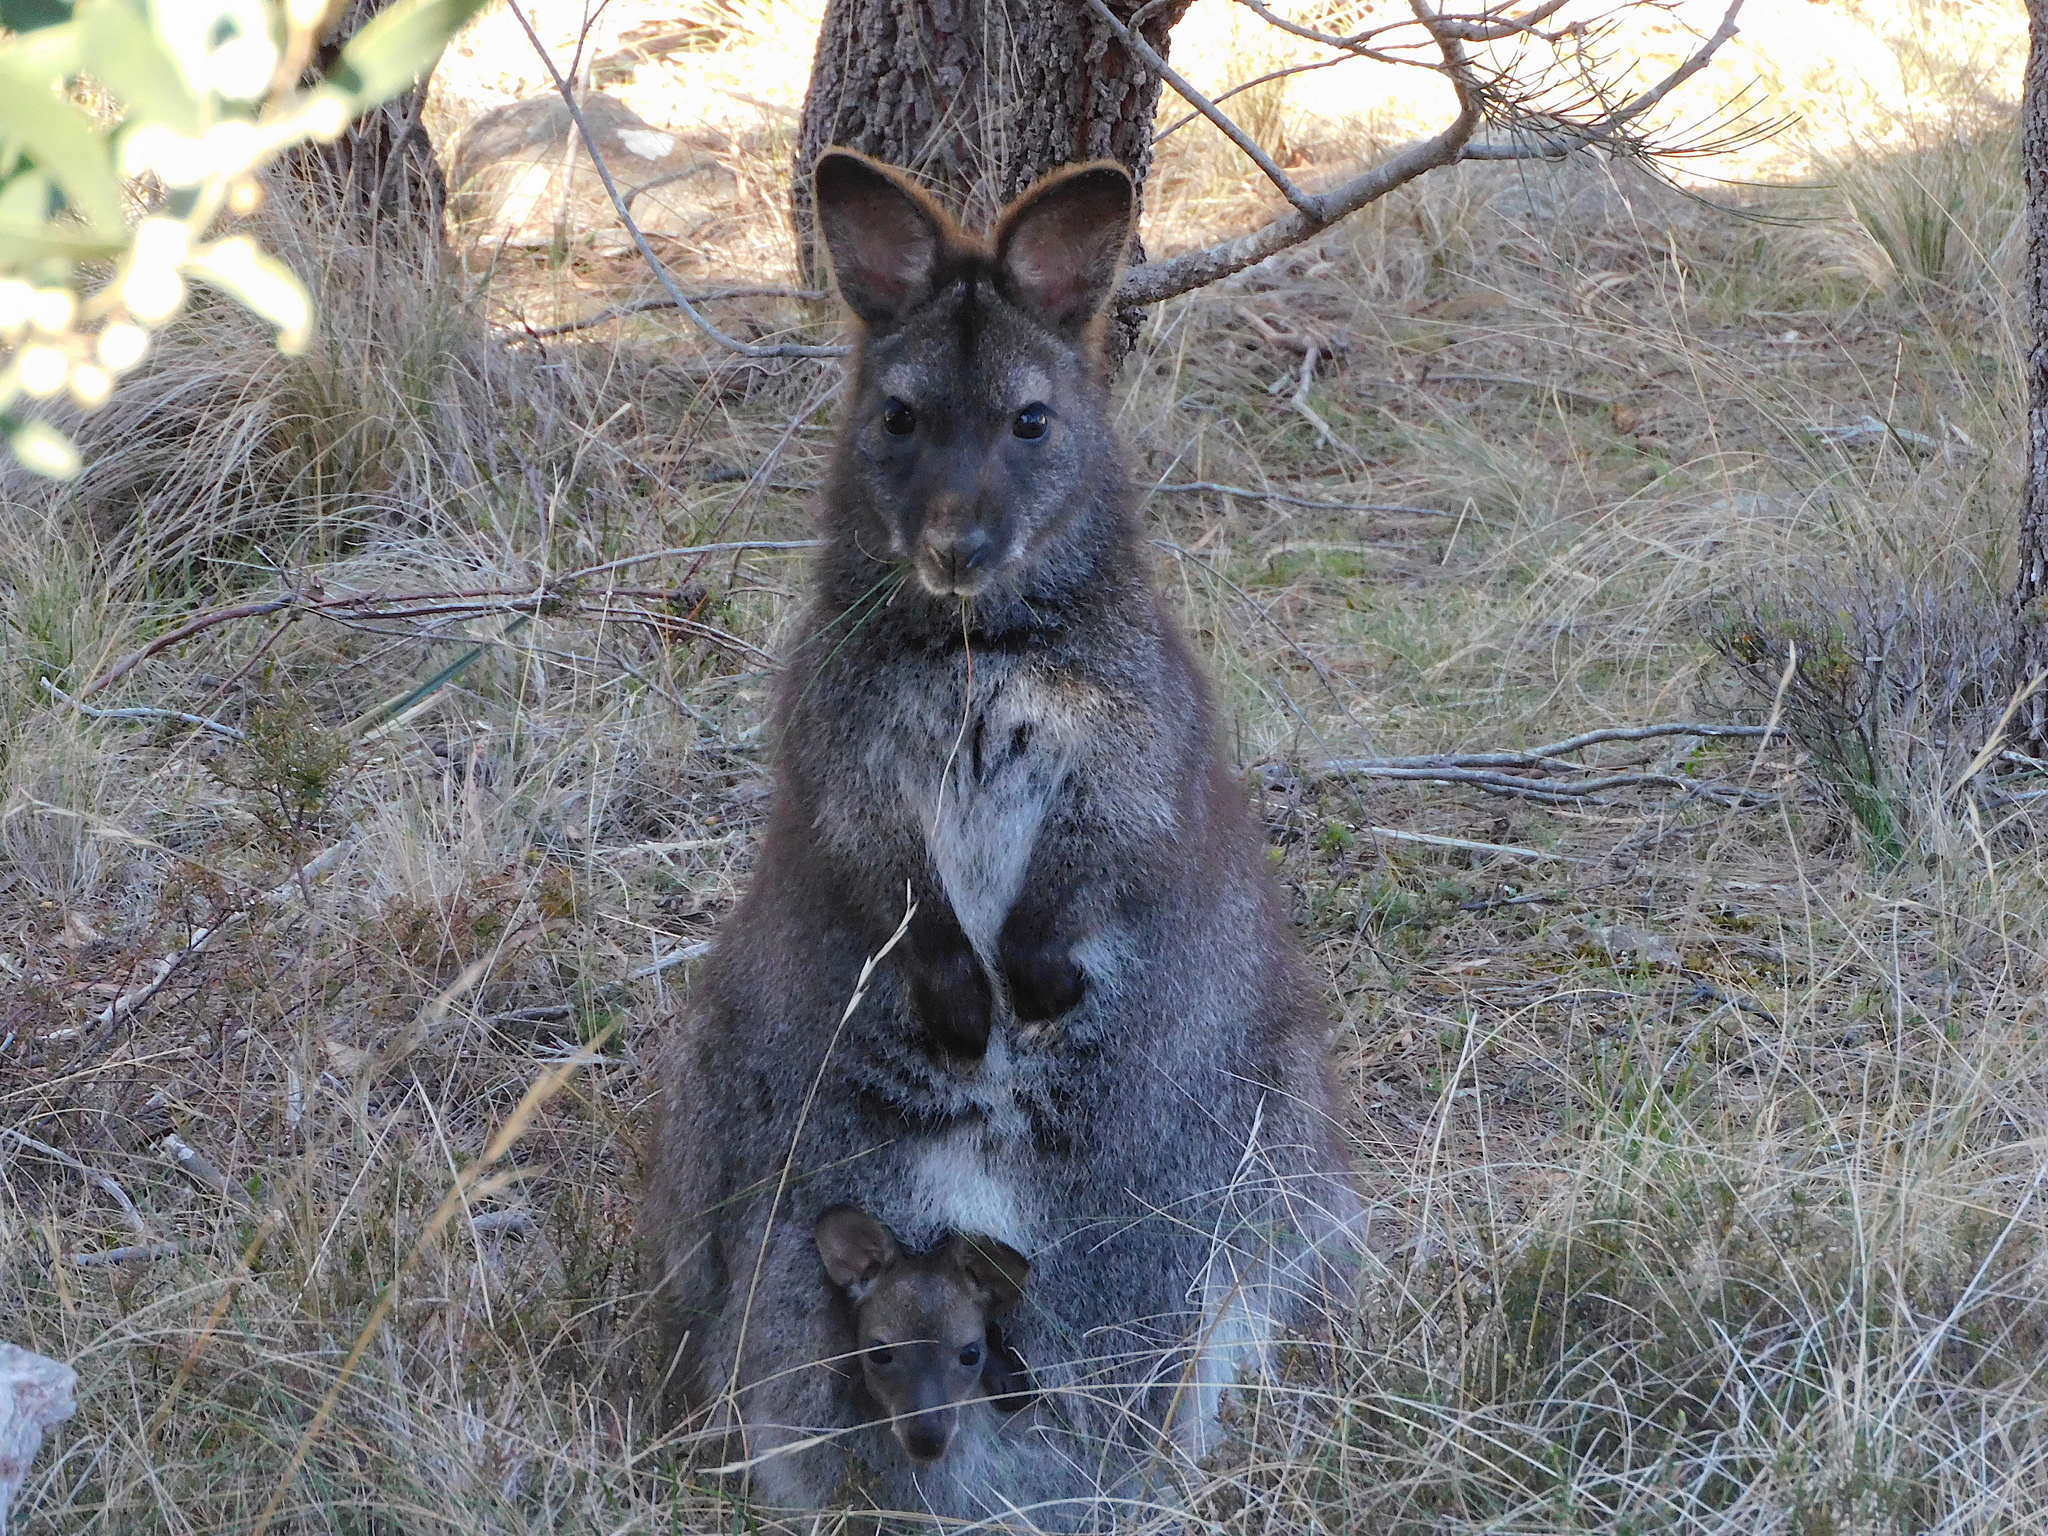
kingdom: Animalia
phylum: Chordata
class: Mammalia
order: Diprotodontia
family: Macropodidae
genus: Notamacropus
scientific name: Notamacropus rufogriseus
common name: Red-necked wallaby
